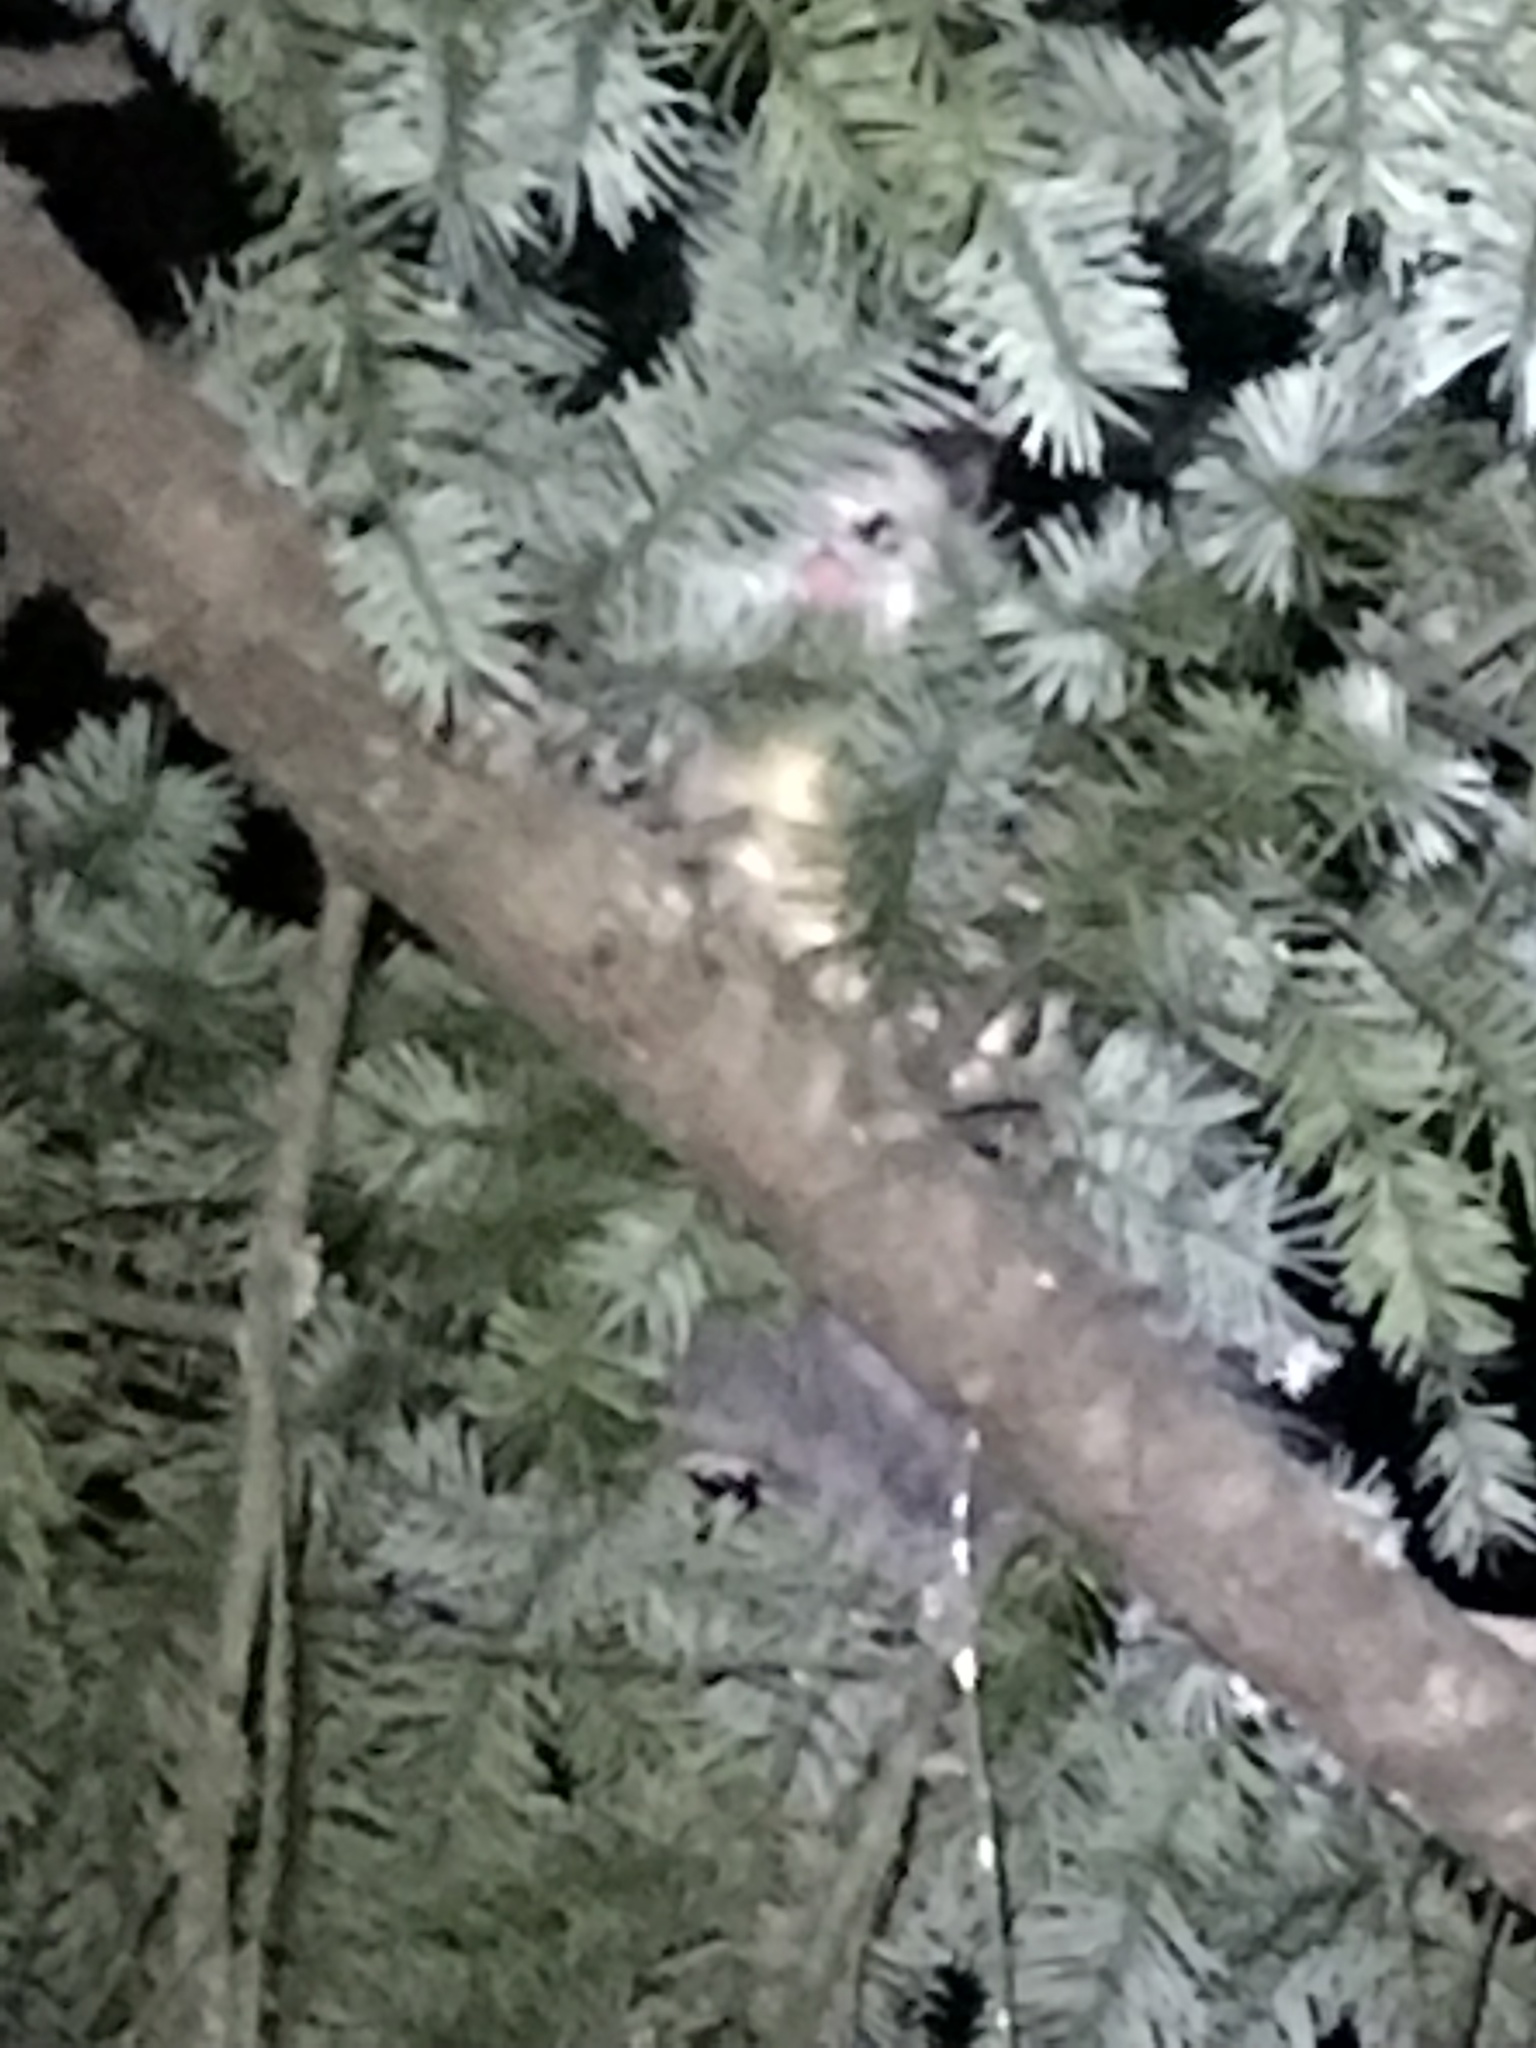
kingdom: Animalia
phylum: Chordata
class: Mammalia
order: Didelphimorphia
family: Didelphidae
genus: Didelphis
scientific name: Didelphis virginiana
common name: Virginia opossum
